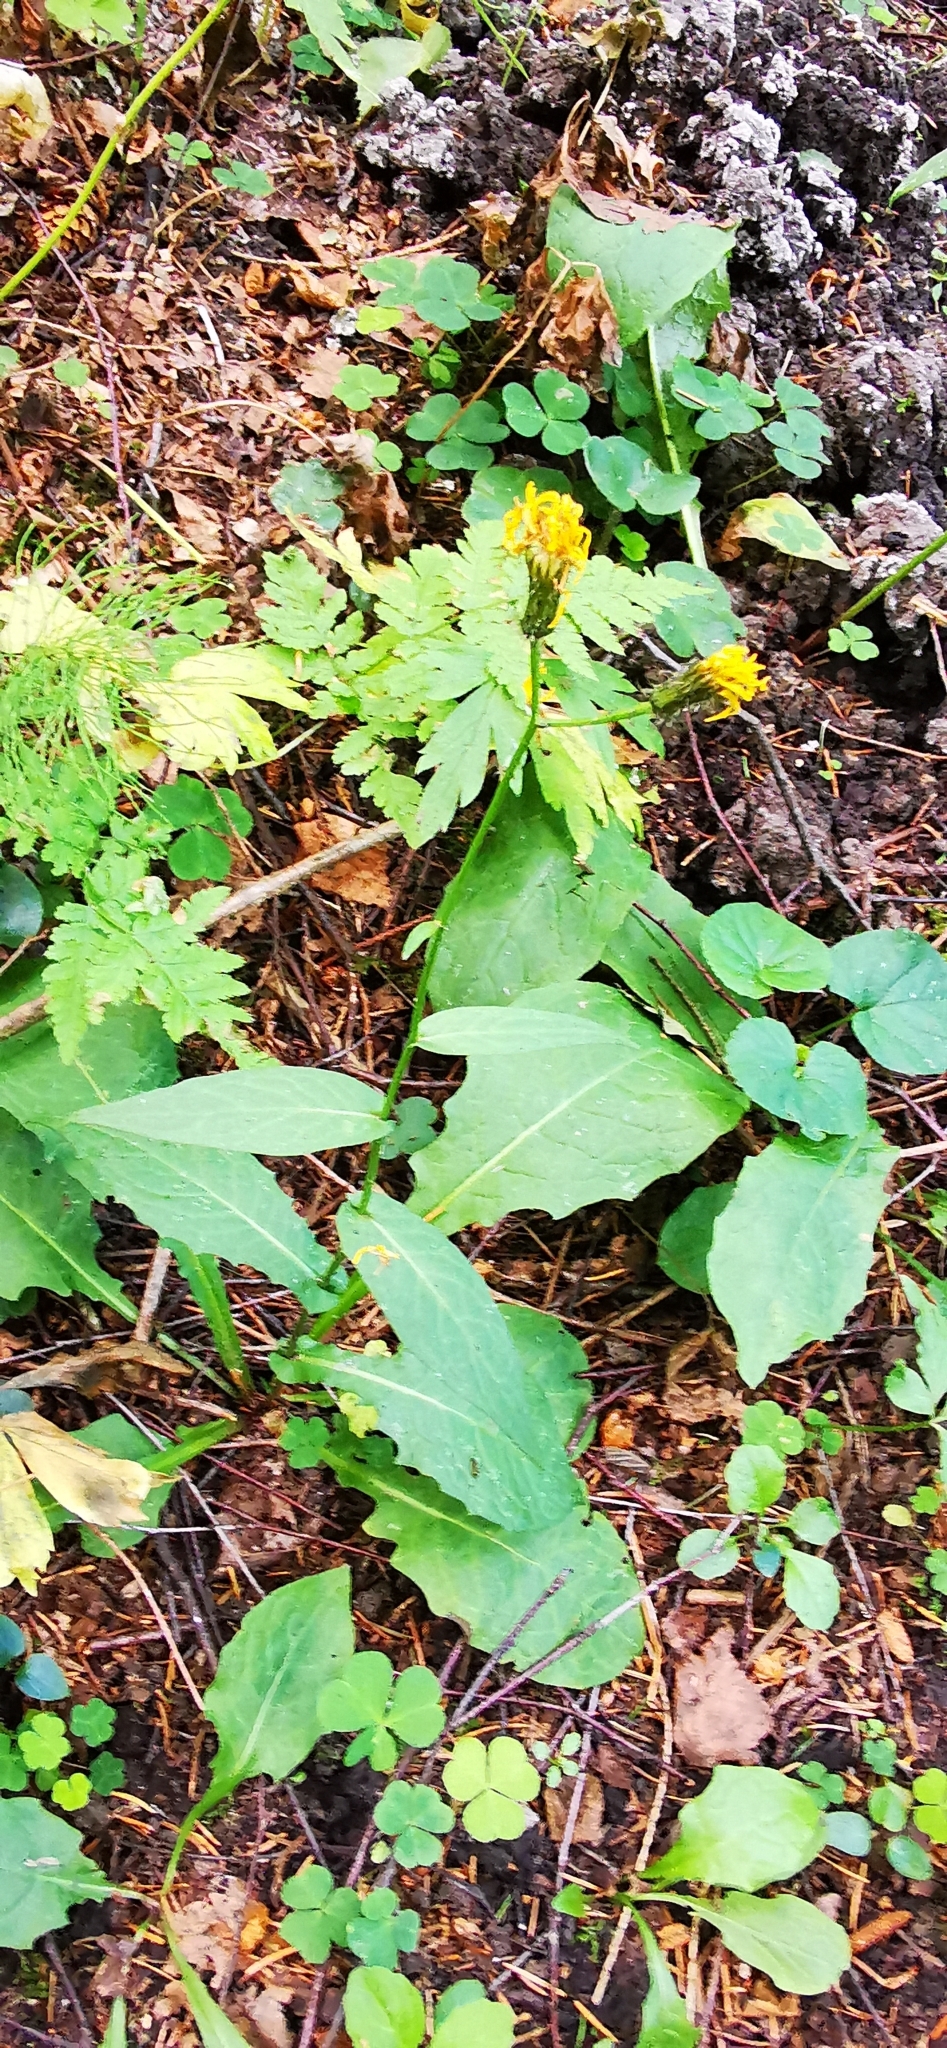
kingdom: Plantae
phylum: Tracheophyta
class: Magnoliopsida
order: Asterales
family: Asteraceae
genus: Crepis
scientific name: Crepis paludosa
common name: Marsh hawk's-beard
